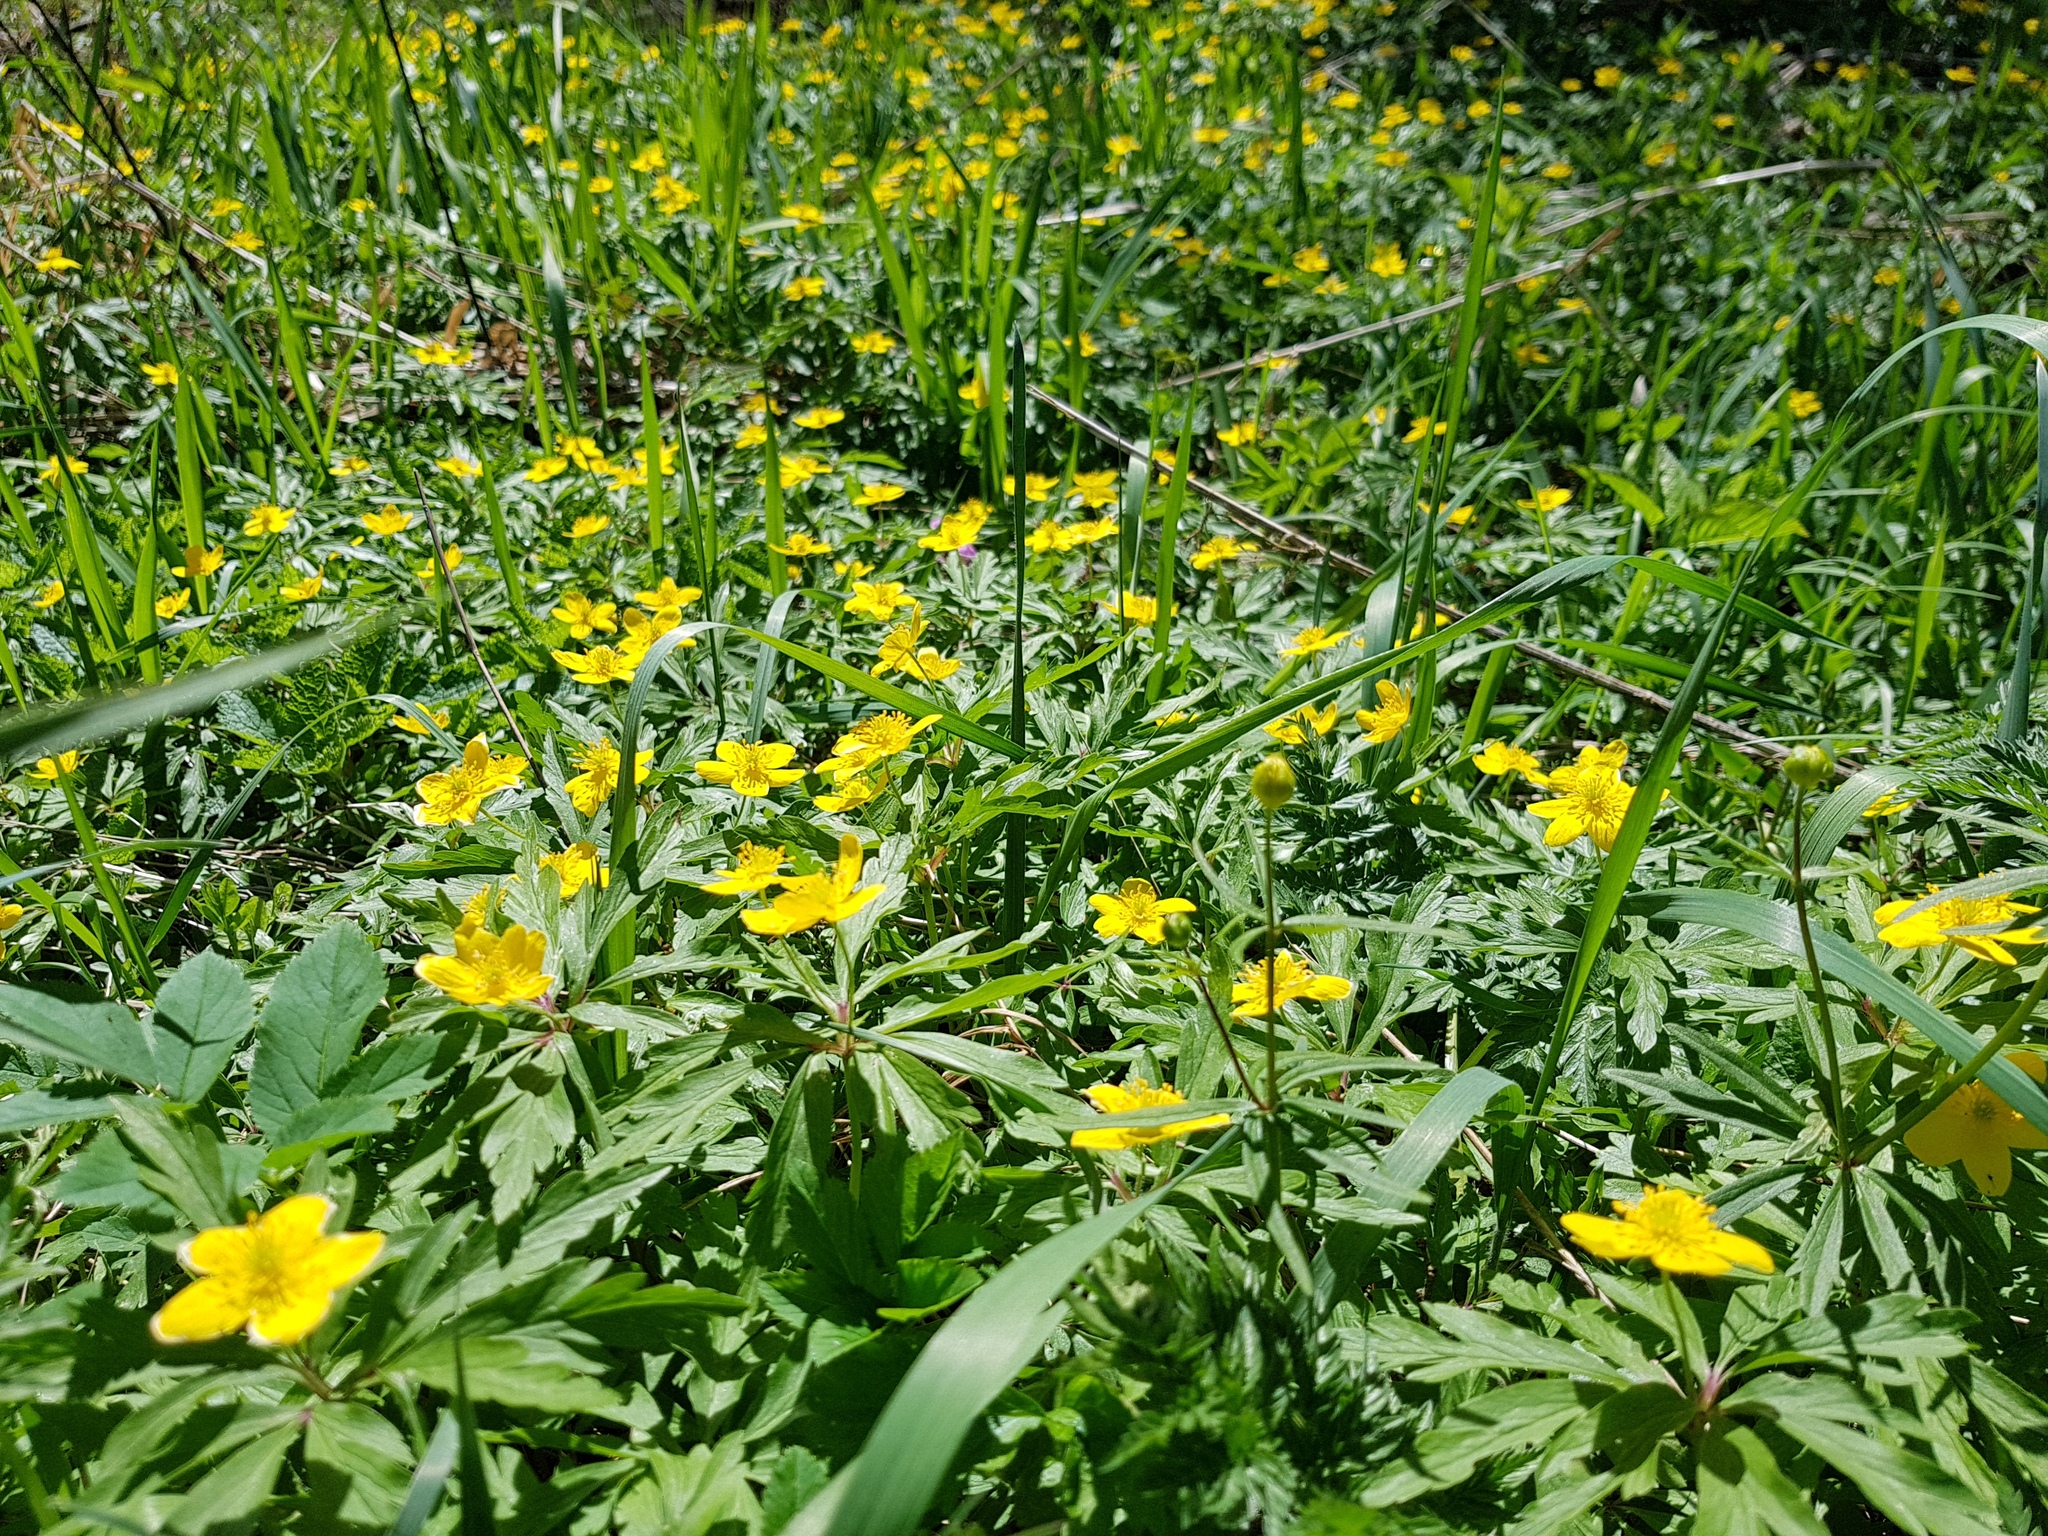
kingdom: Plantae
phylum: Tracheophyta
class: Magnoliopsida
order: Ranunculales
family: Ranunculaceae
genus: Anemone
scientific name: Anemone ranunculoides
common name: Yellow anemone
